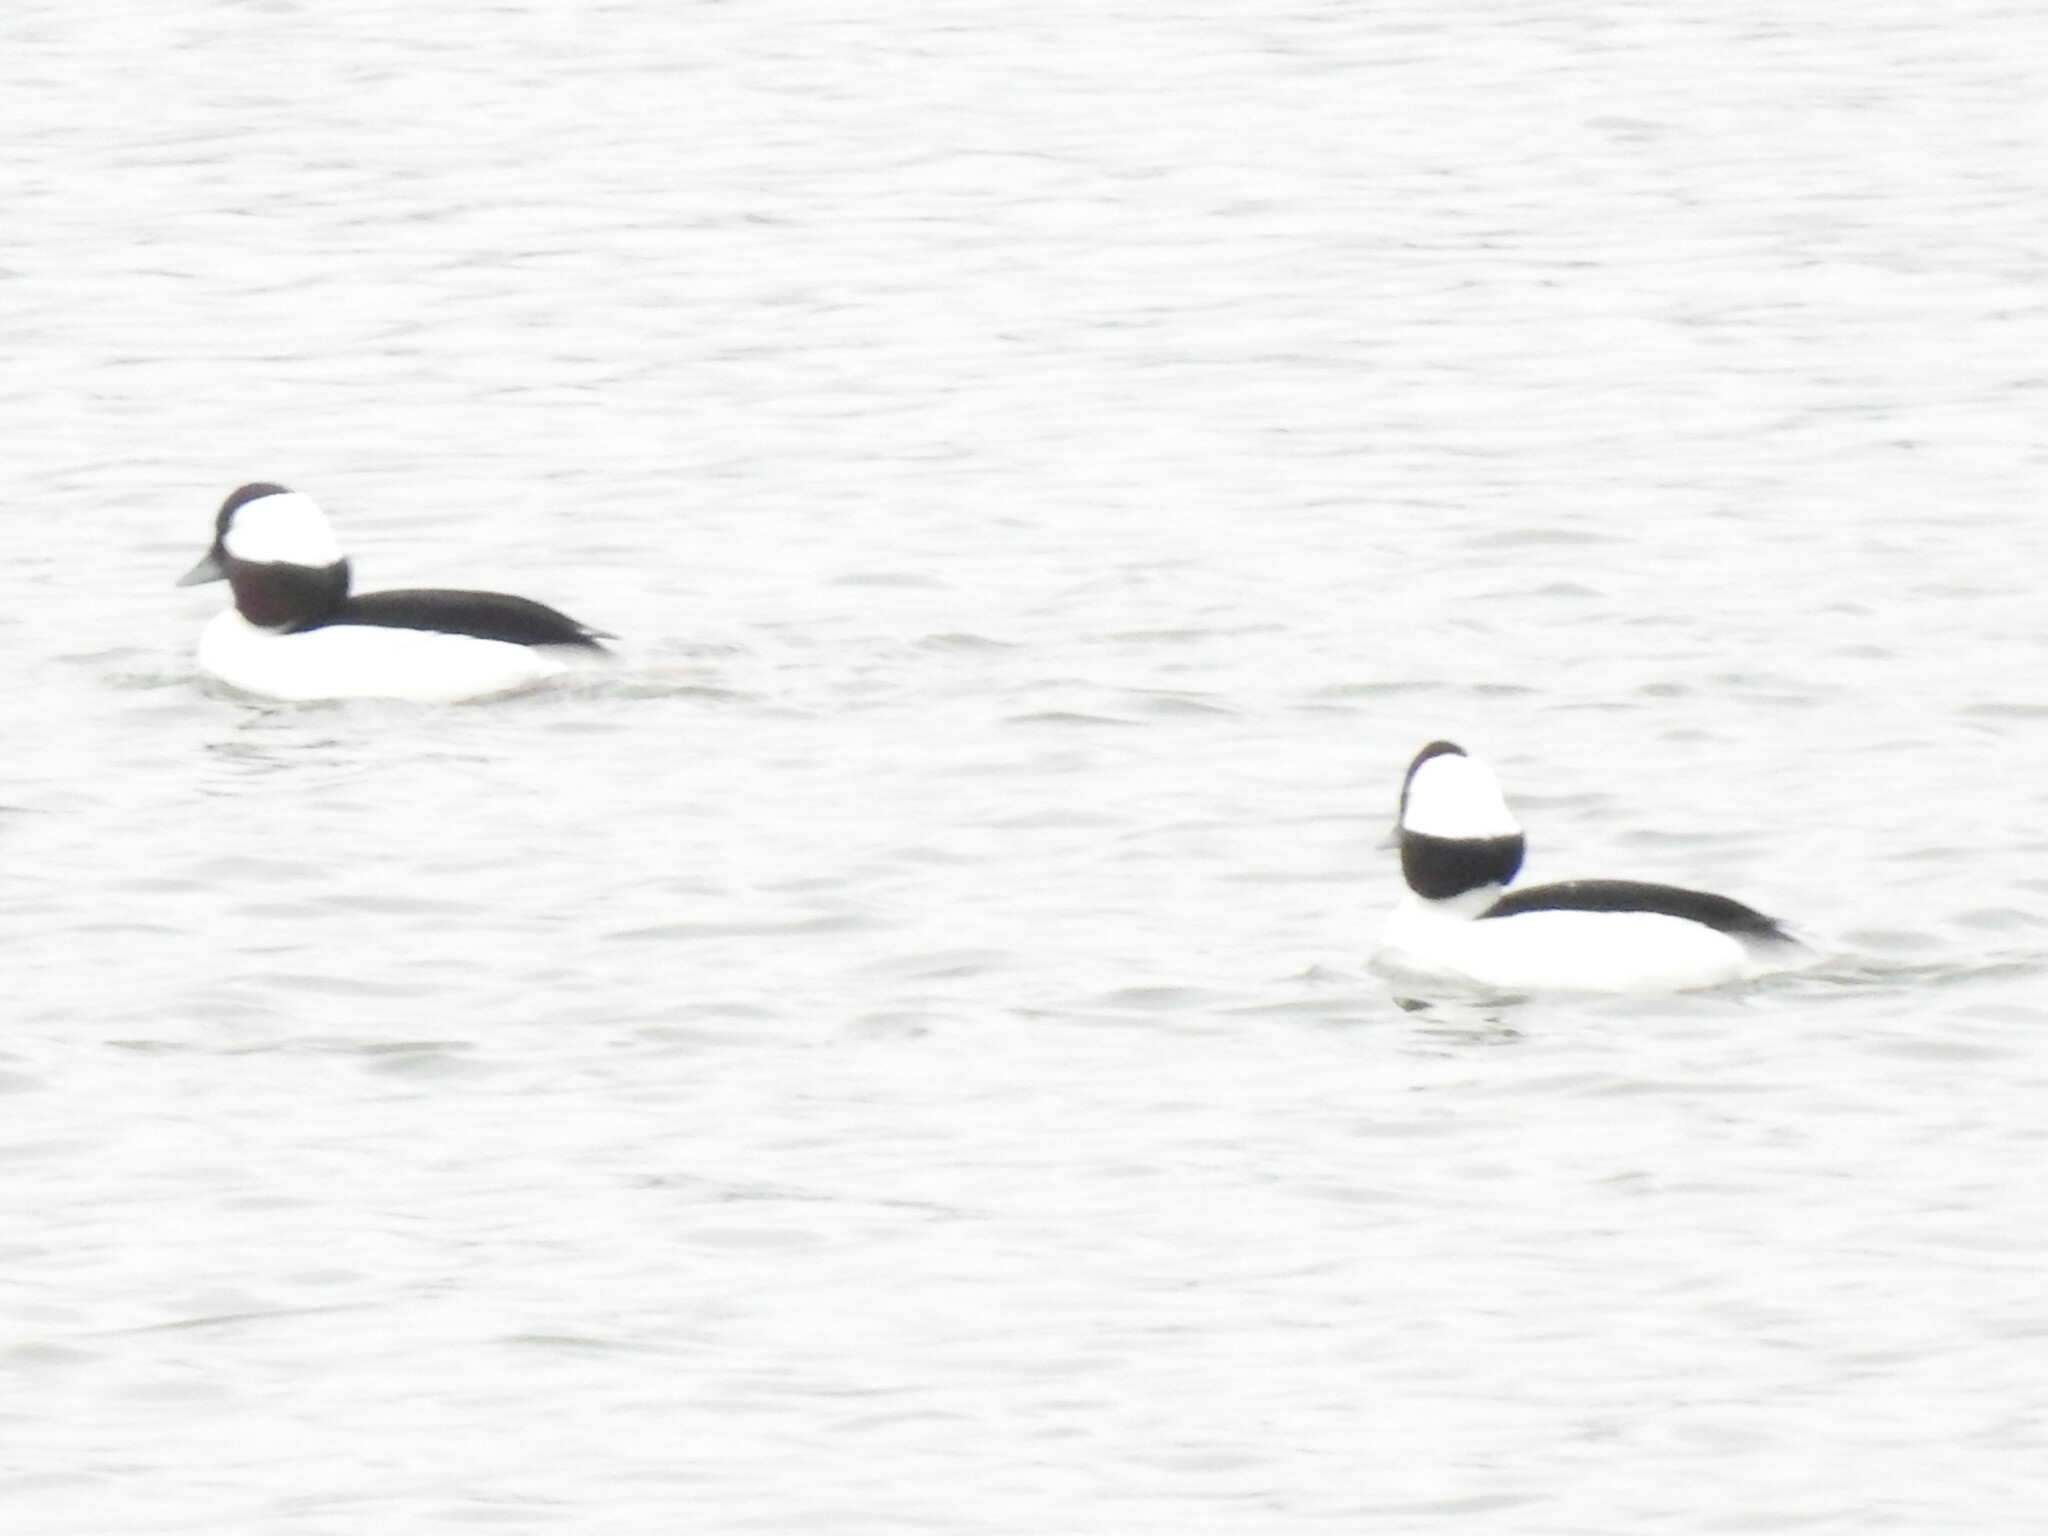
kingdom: Animalia
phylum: Chordata
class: Aves
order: Anseriformes
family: Anatidae
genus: Bucephala
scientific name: Bucephala albeola
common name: Bufflehead
